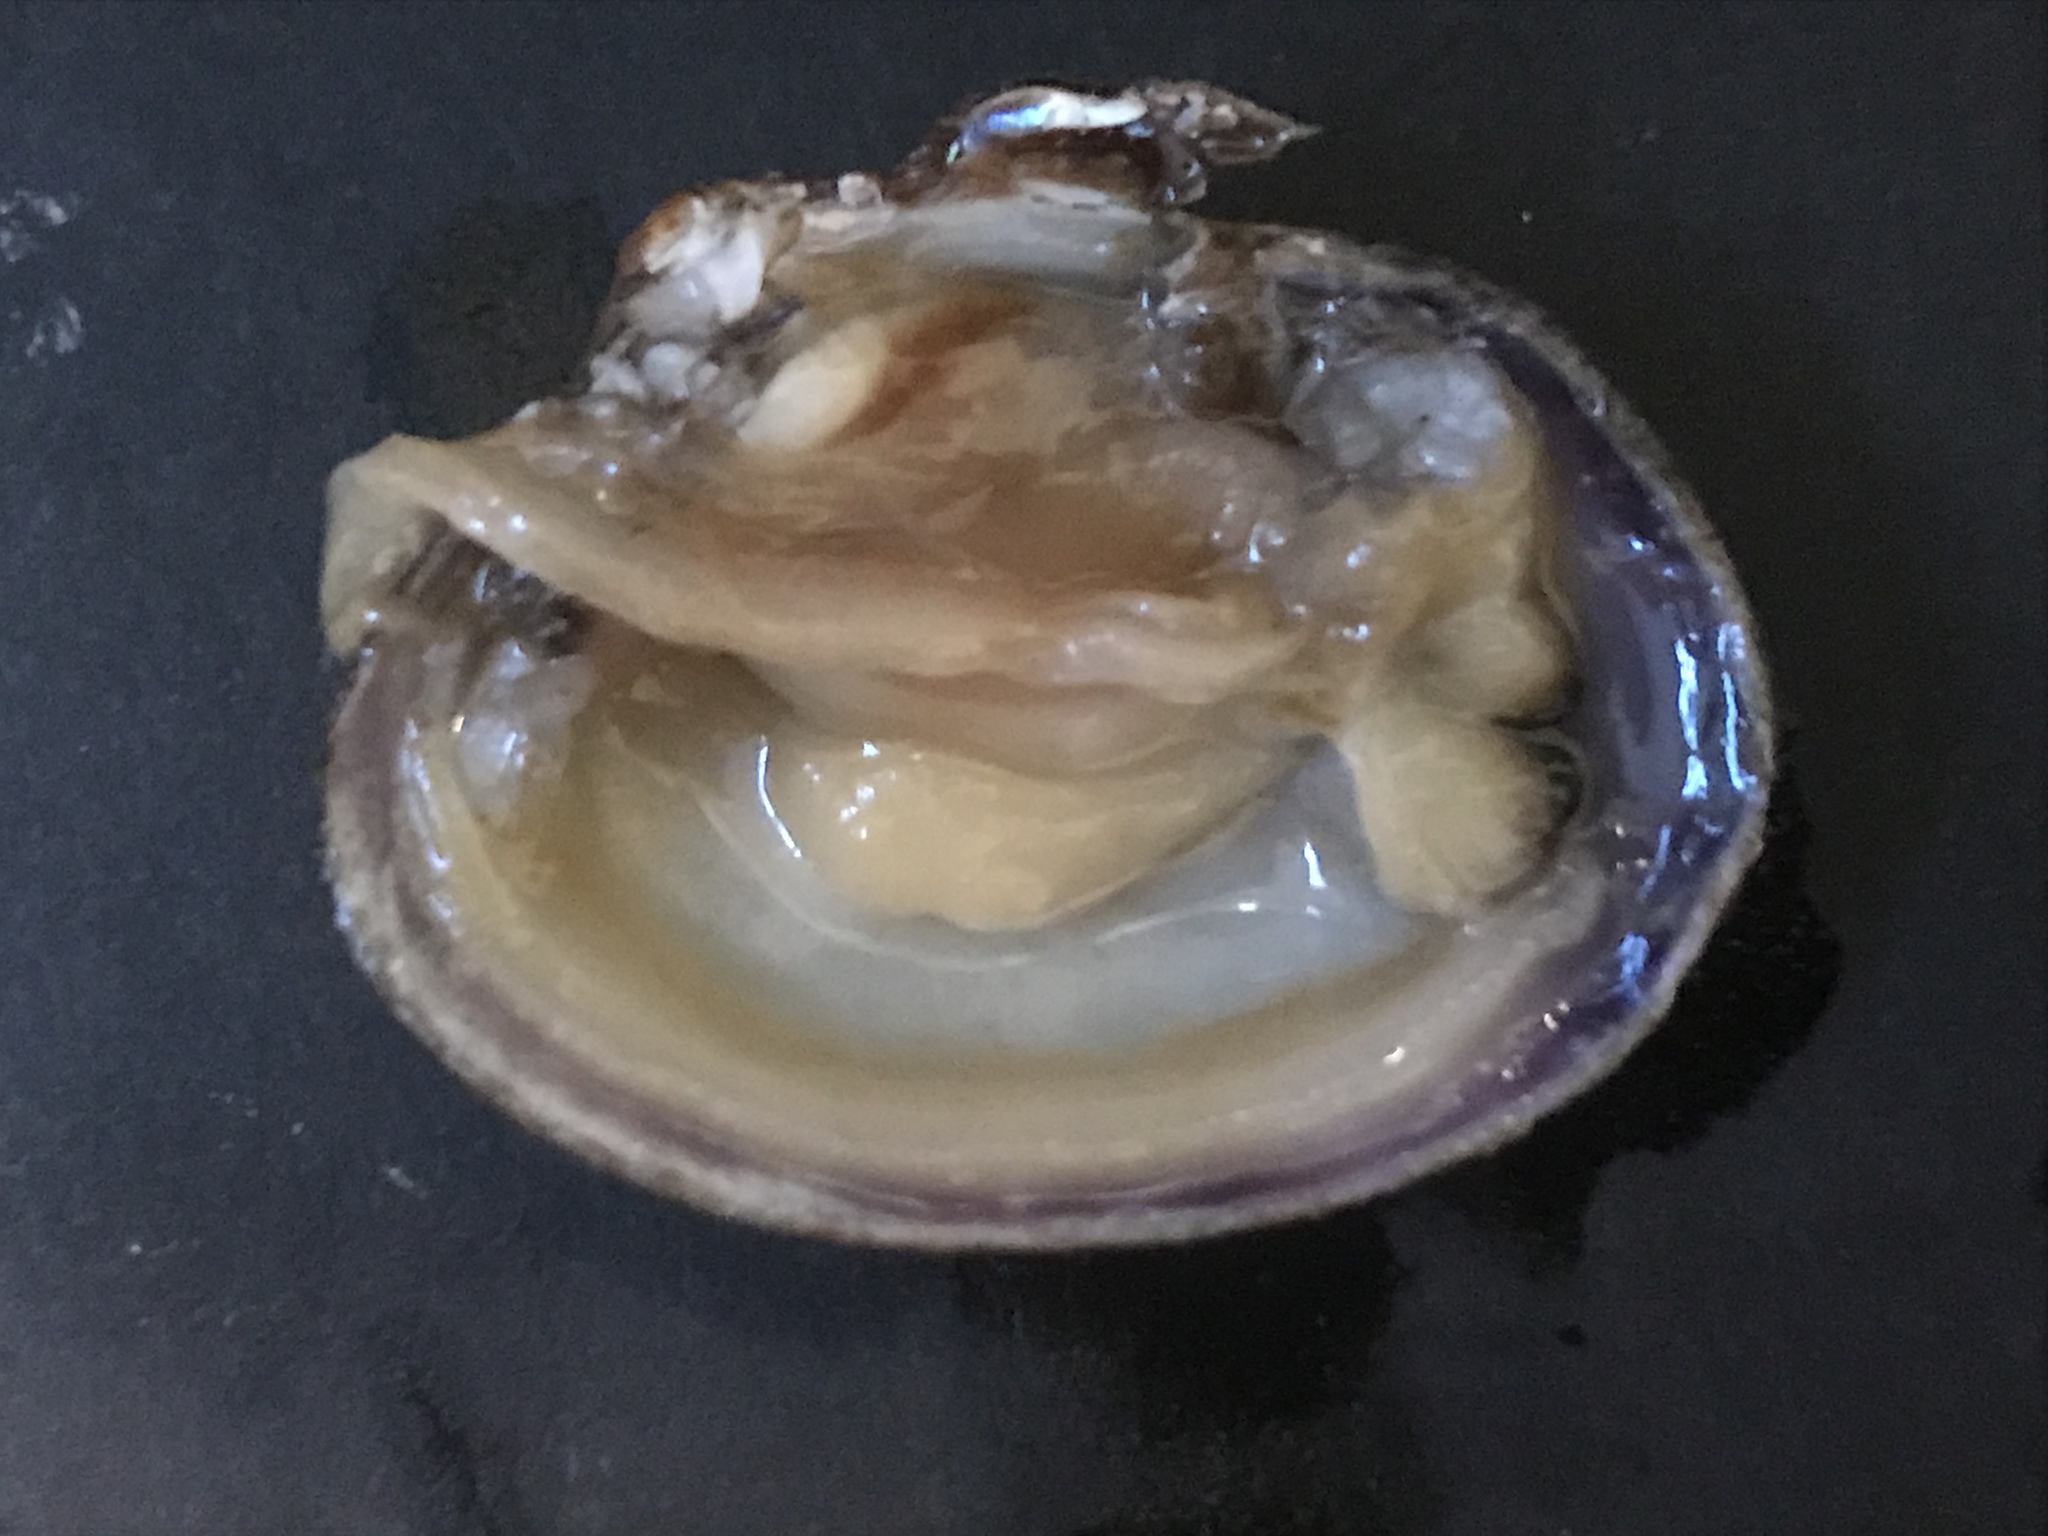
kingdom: Animalia
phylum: Mollusca
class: Bivalvia
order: Venerida
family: Veneridae
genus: Ruditapes
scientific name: Ruditapes philippinarum
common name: Manila clam
